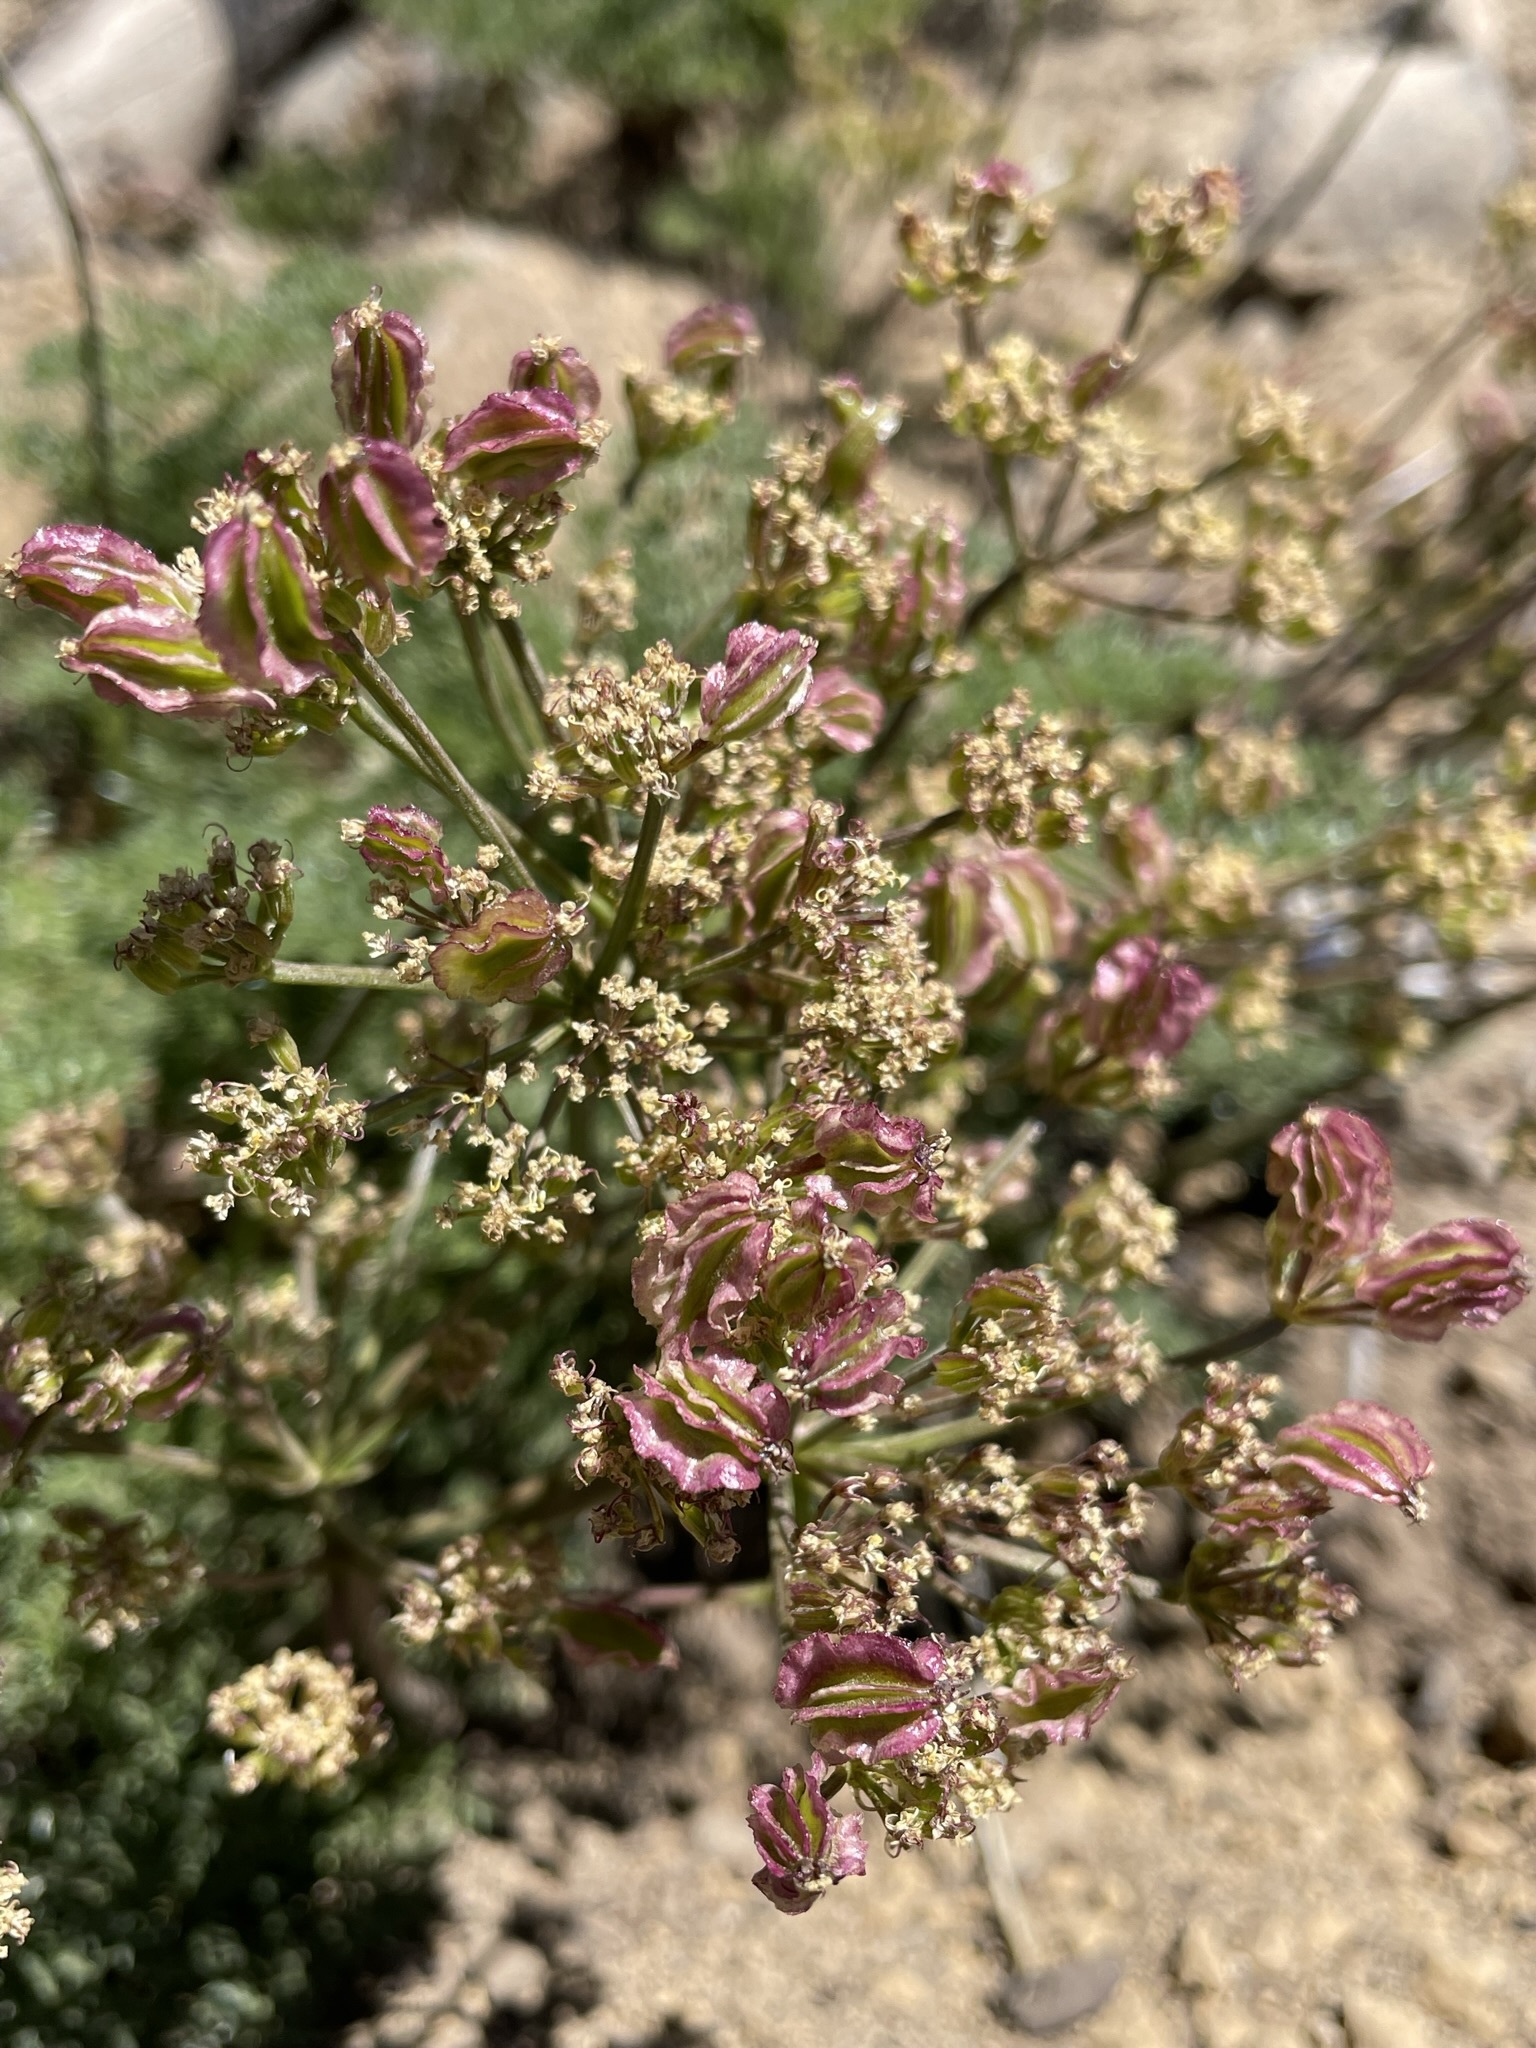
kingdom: Plantae
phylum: Tracheophyta
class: Magnoliopsida
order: Apiales
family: Apiaceae
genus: Pteryxia
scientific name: Pteryxia terebinthina
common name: Turpentine wavewing
